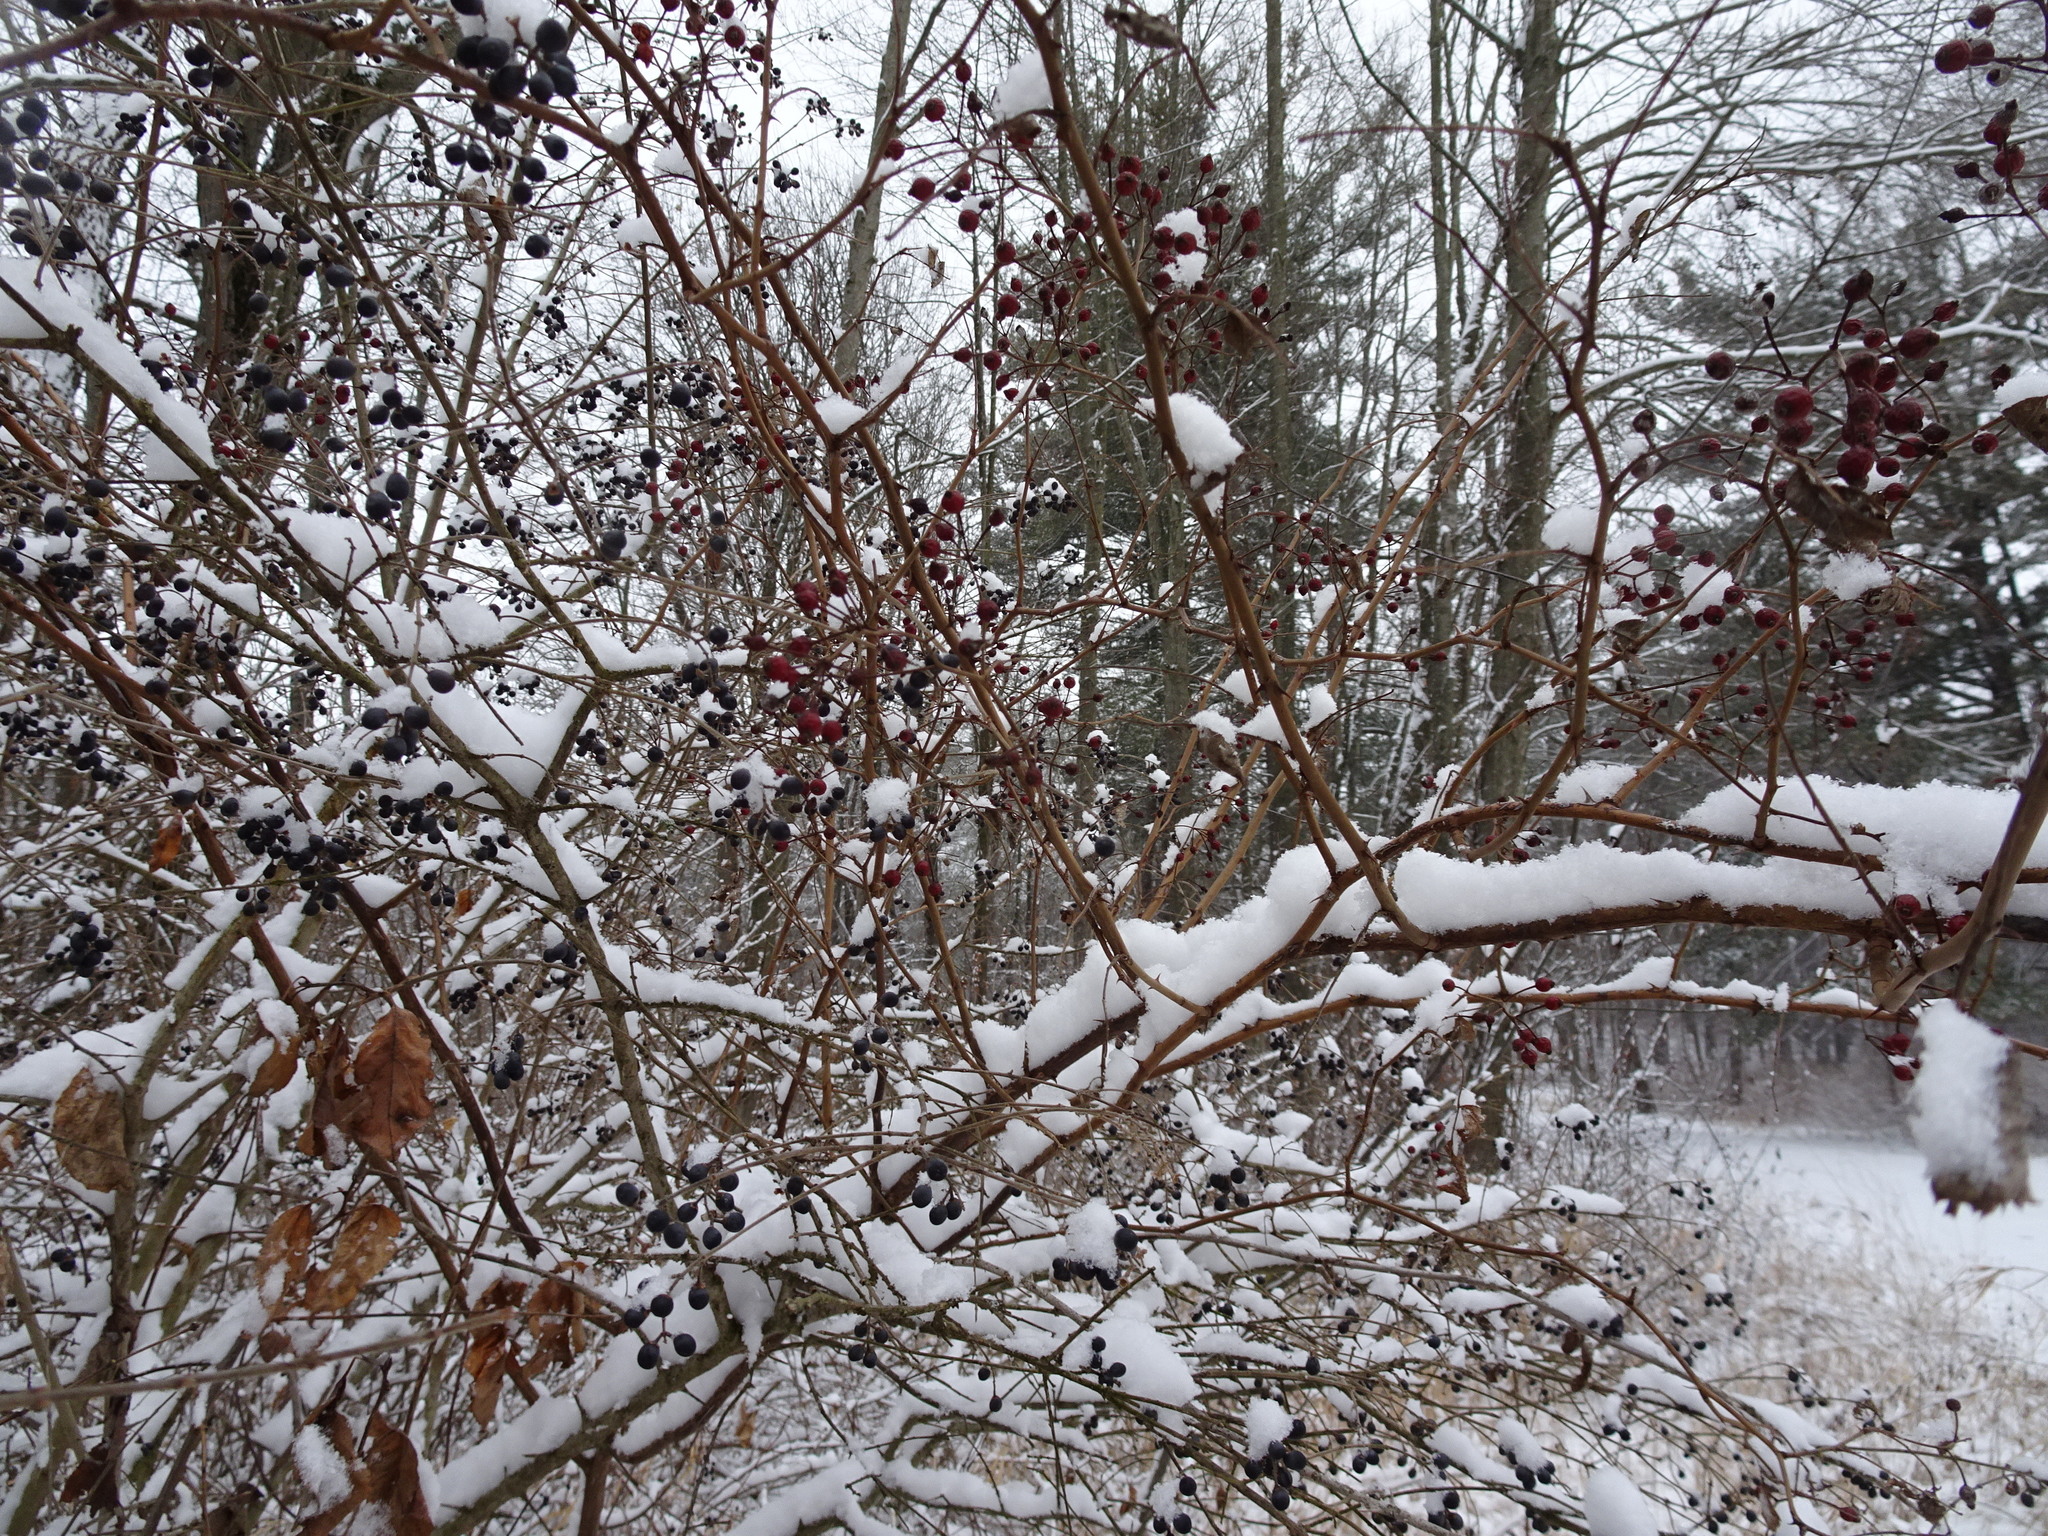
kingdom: Plantae
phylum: Tracheophyta
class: Magnoliopsida
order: Rosales
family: Rosaceae
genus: Rosa
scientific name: Rosa multiflora
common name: Multiflora rose
